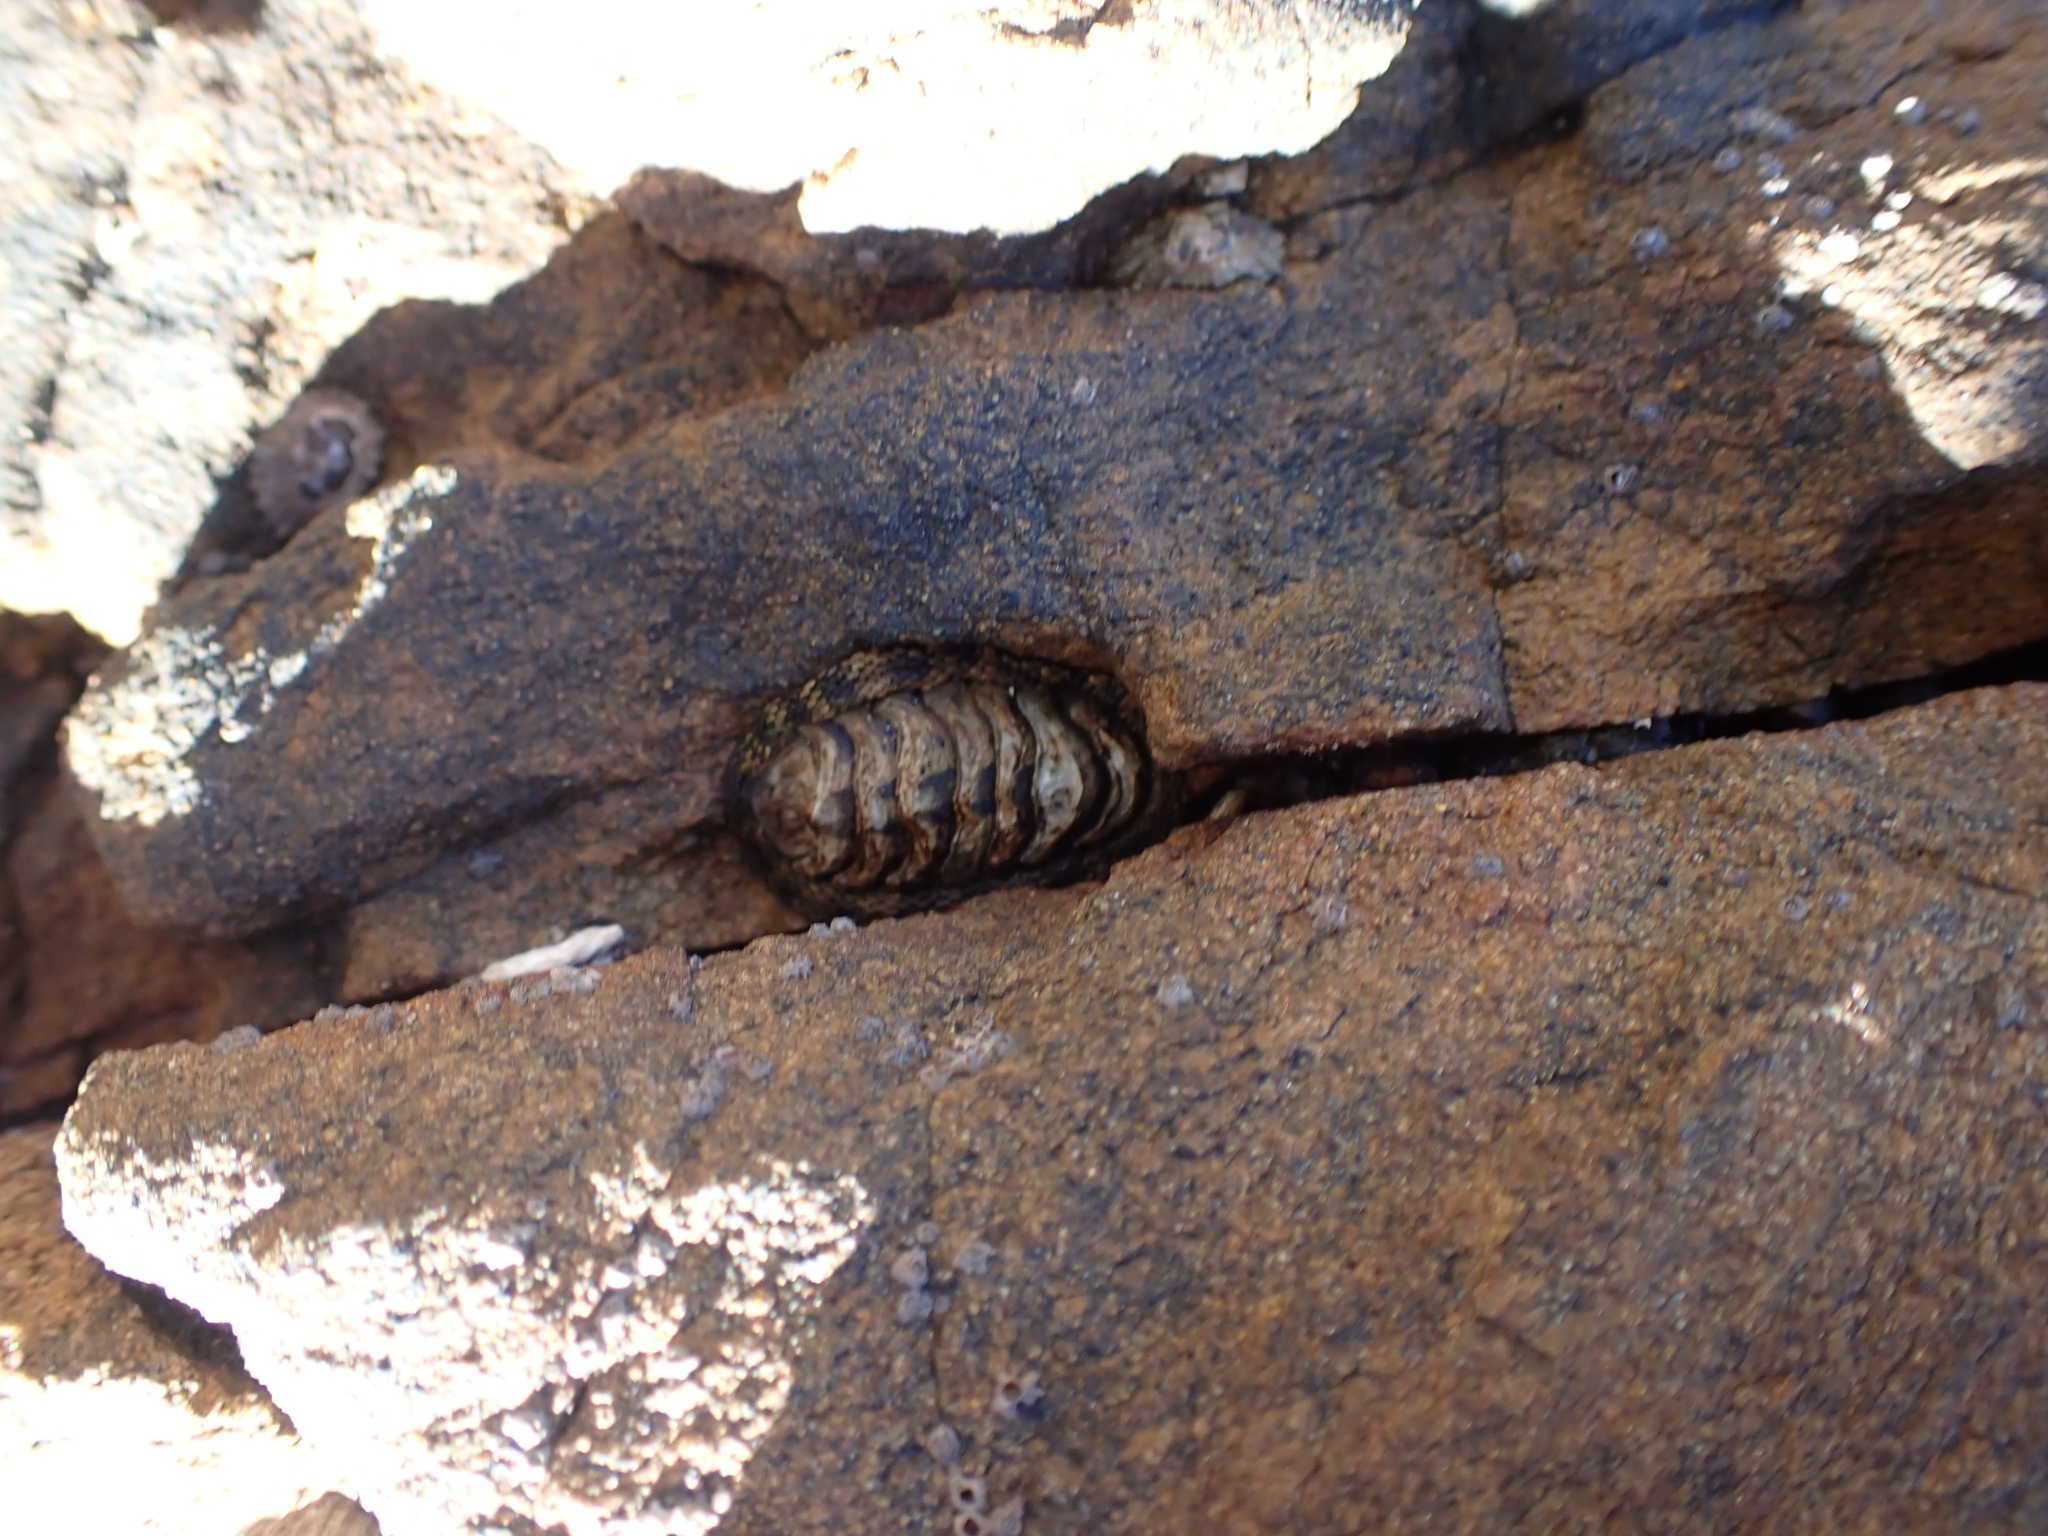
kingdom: Animalia
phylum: Mollusca
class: Polyplacophora
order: Chitonida
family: Chitonidae
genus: Sypharochiton
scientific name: Sypharochiton pelliserpentis
